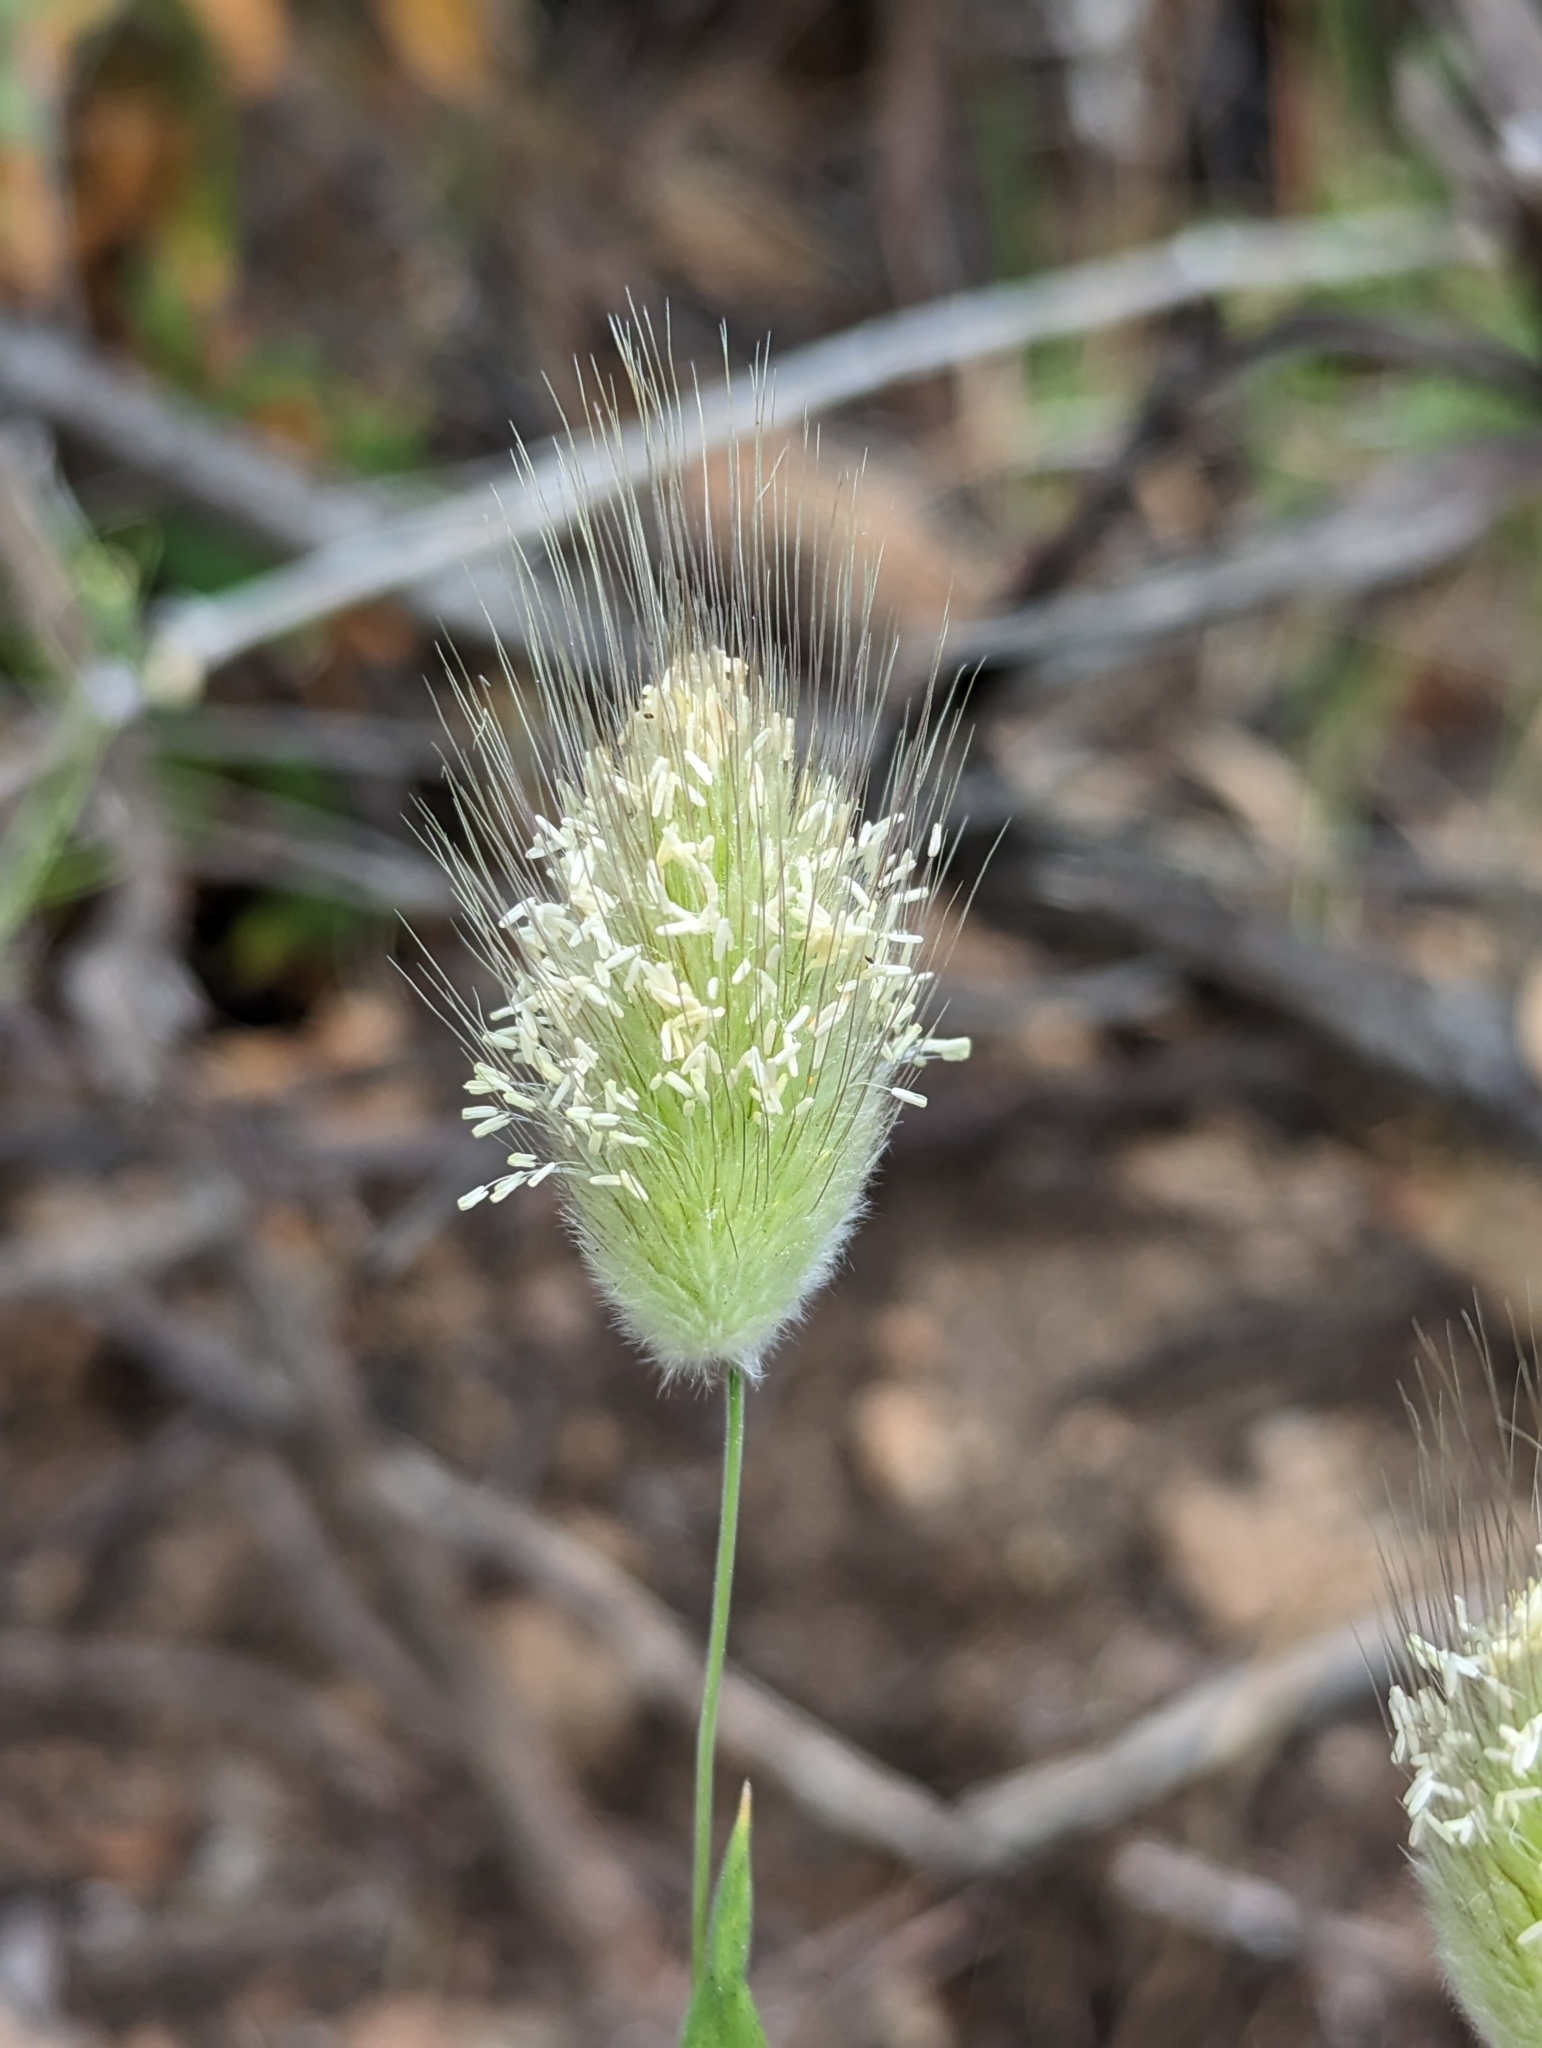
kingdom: Plantae
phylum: Tracheophyta
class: Liliopsida
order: Poales
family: Poaceae
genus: Lagurus
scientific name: Lagurus ovatus
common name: Hare's-tail
